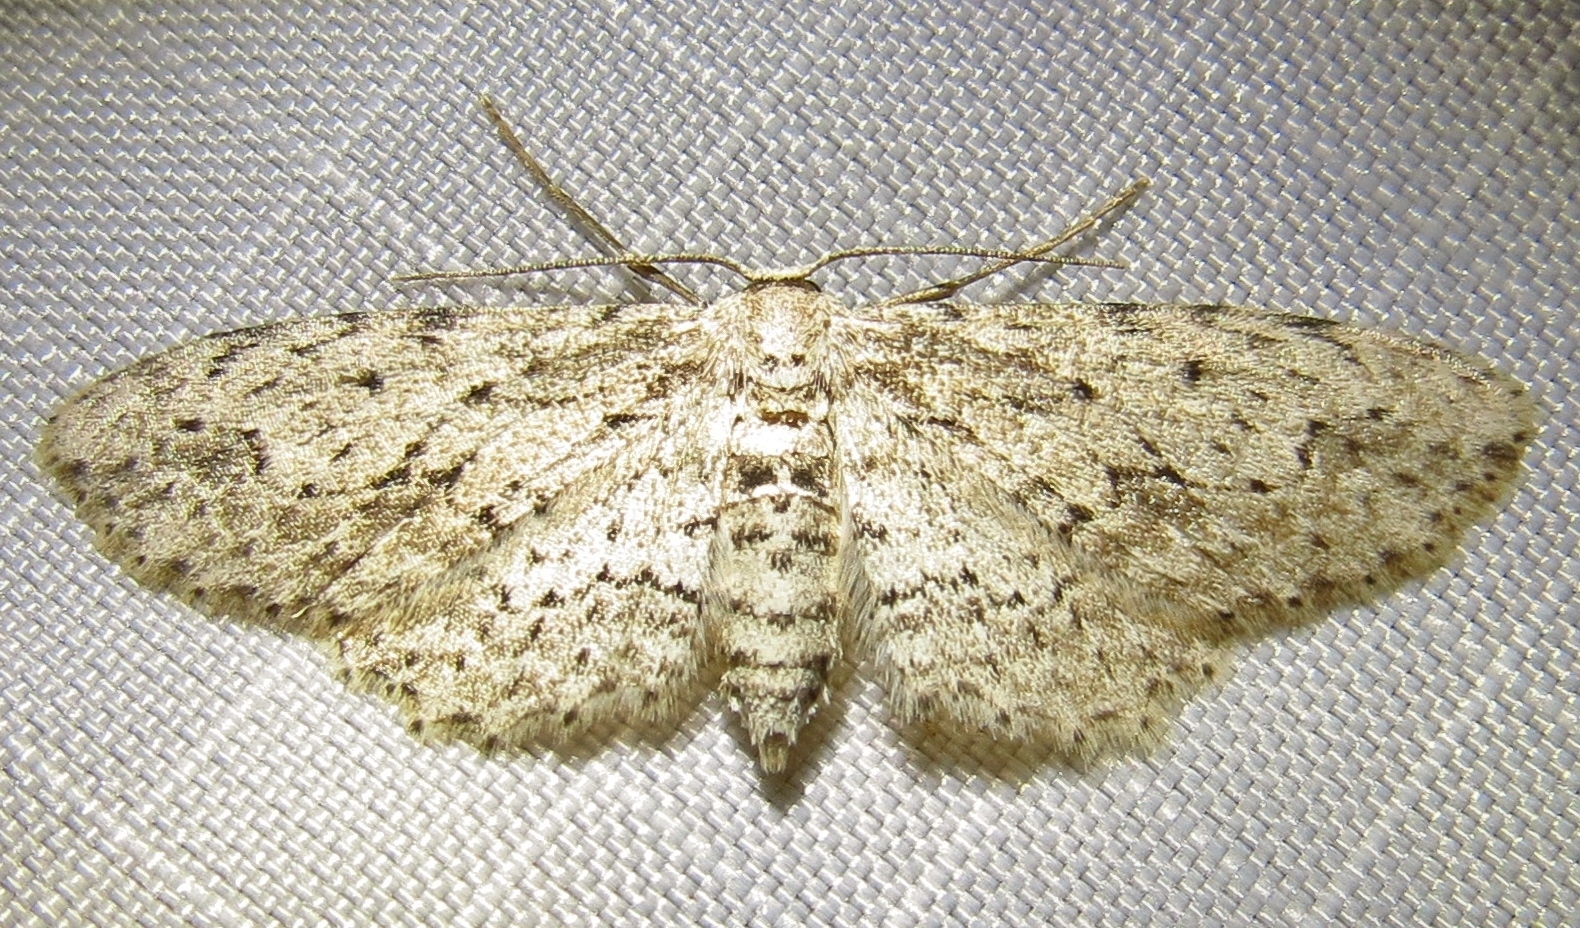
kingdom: Animalia
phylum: Arthropoda
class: Insecta
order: Lepidoptera
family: Geometridae
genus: Pimaphera
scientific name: Pimaphera sparsaria
